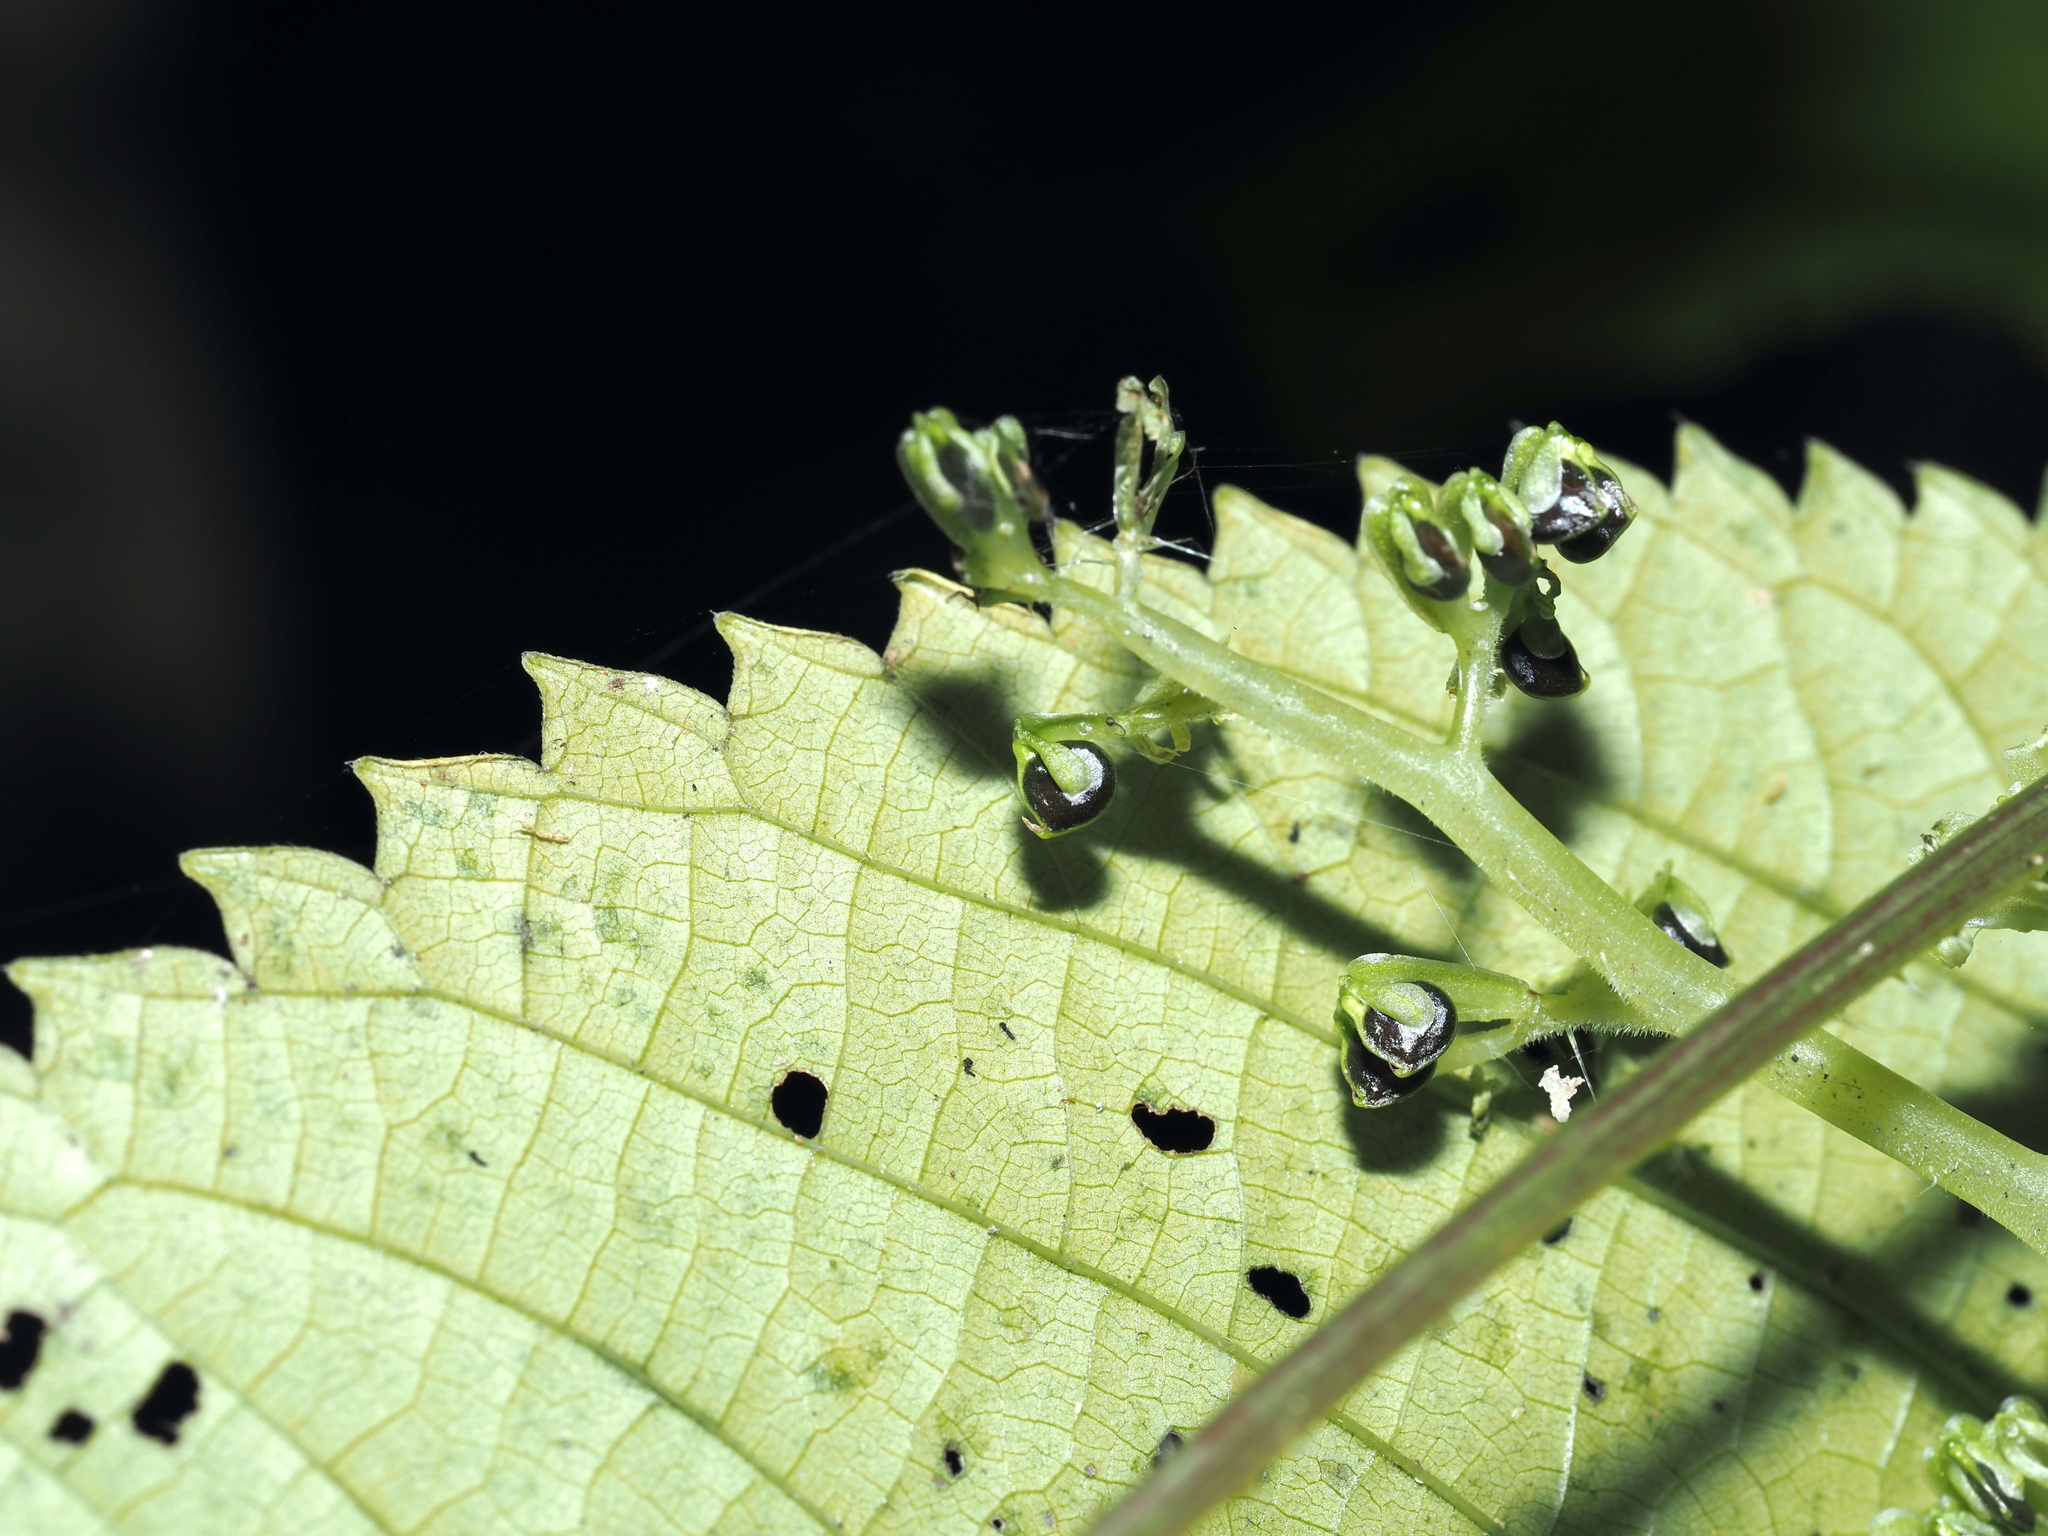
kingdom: Plantae
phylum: Tracheophyta
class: Magnoliopsida
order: Rosales
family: Urticaceae
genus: Laportea
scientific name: Laportea canadensis
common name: Canada nettle
